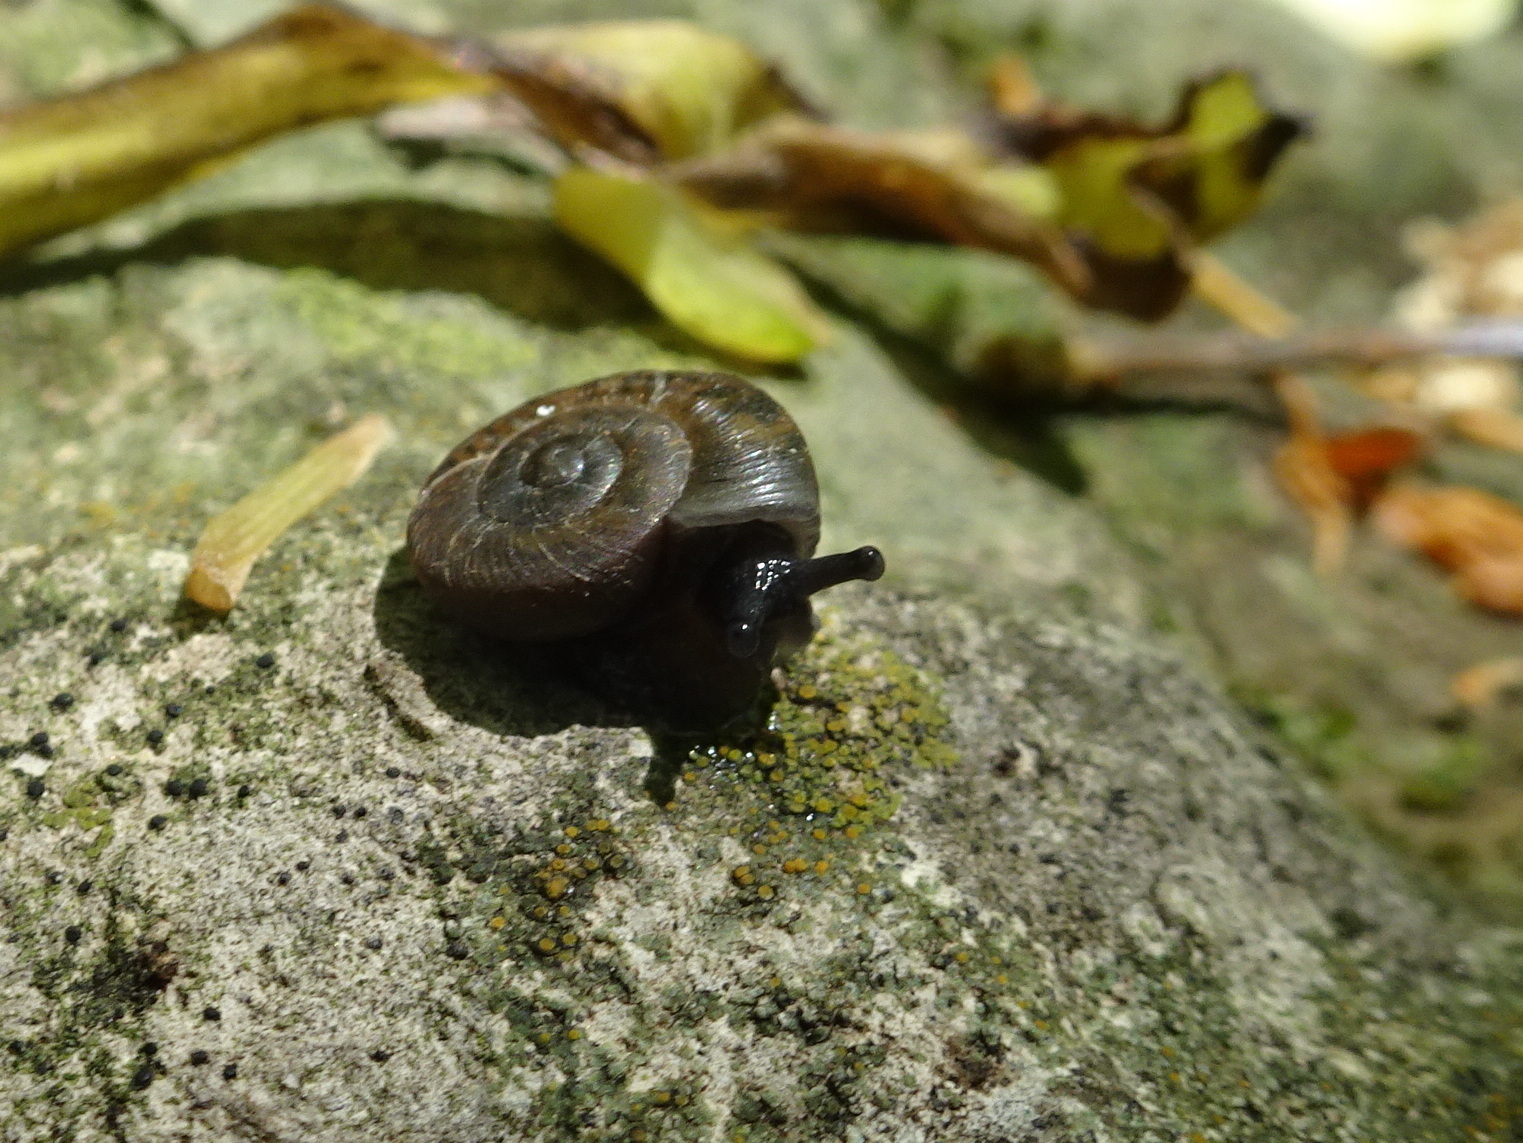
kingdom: Animalia
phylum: Mollusca
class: Gastropoda
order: Stylommatophora
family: Discidae
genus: Anguispira
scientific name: Anguispira alternata
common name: Flamed tigersnail
